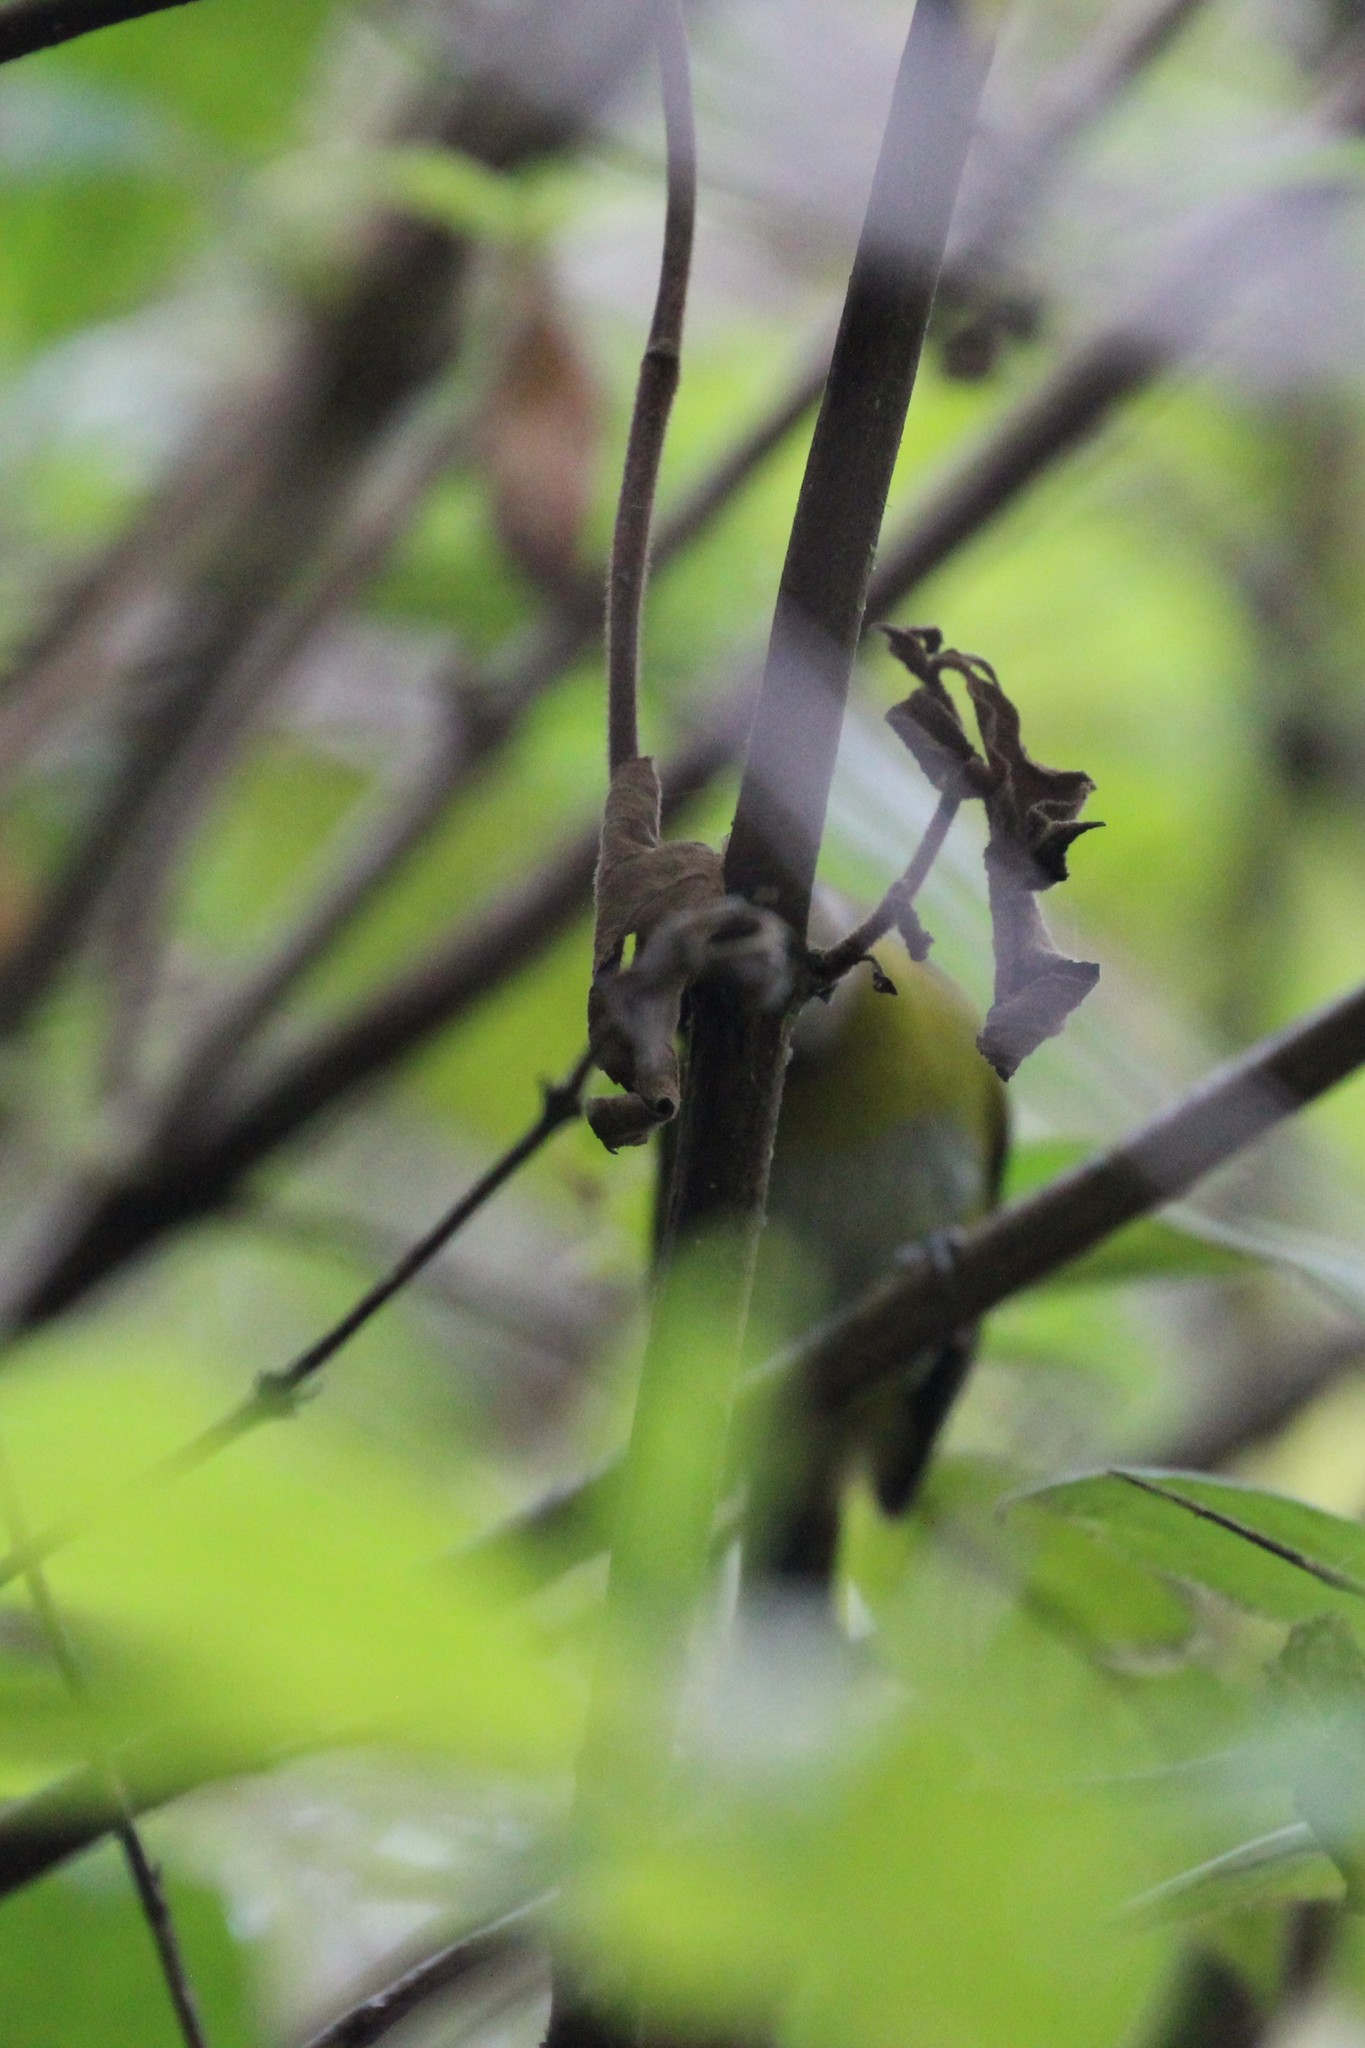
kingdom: Animalia
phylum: Chordata
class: Aves
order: Passeriformes
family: Passerellidae
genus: Chlorospingus
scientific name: Chlorospingus flavopectus
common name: Common chlorospingus
